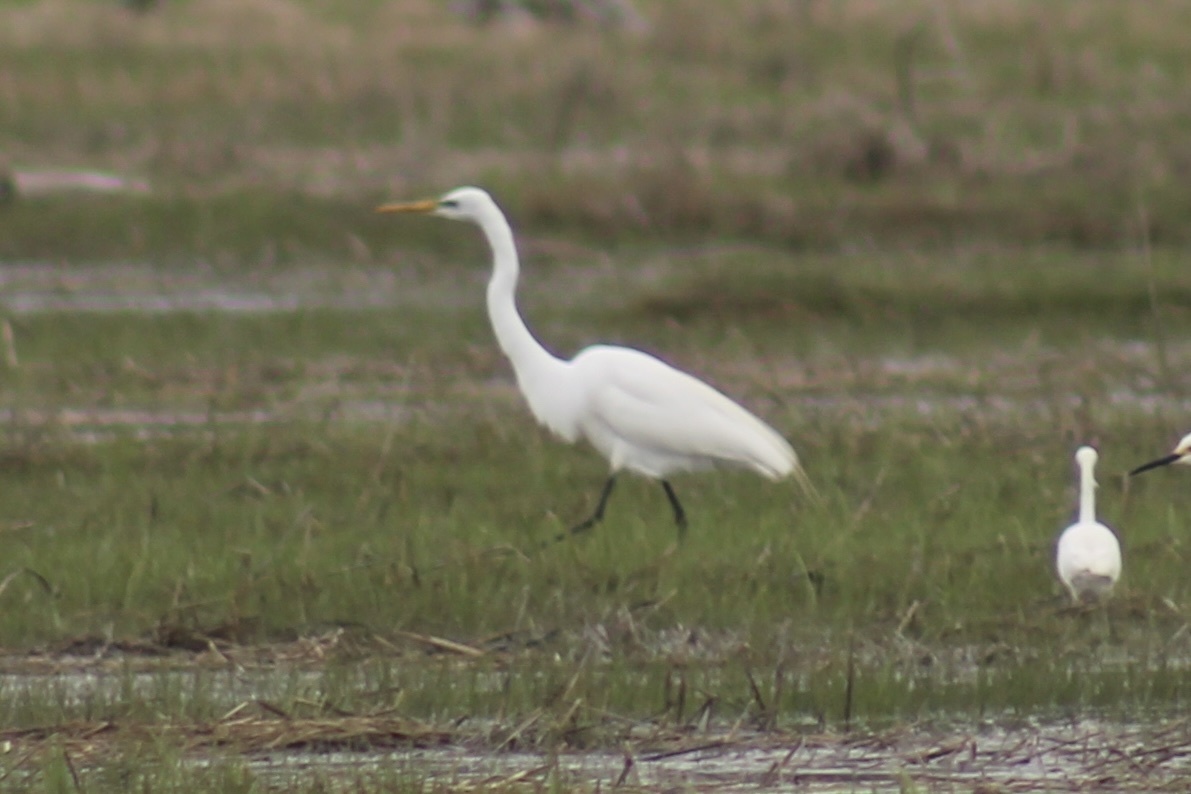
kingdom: Animalia
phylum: Chordata
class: Aves
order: Pelecaniformes
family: Ardeidae
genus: Ardea
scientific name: Ardea alba
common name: Great egret
